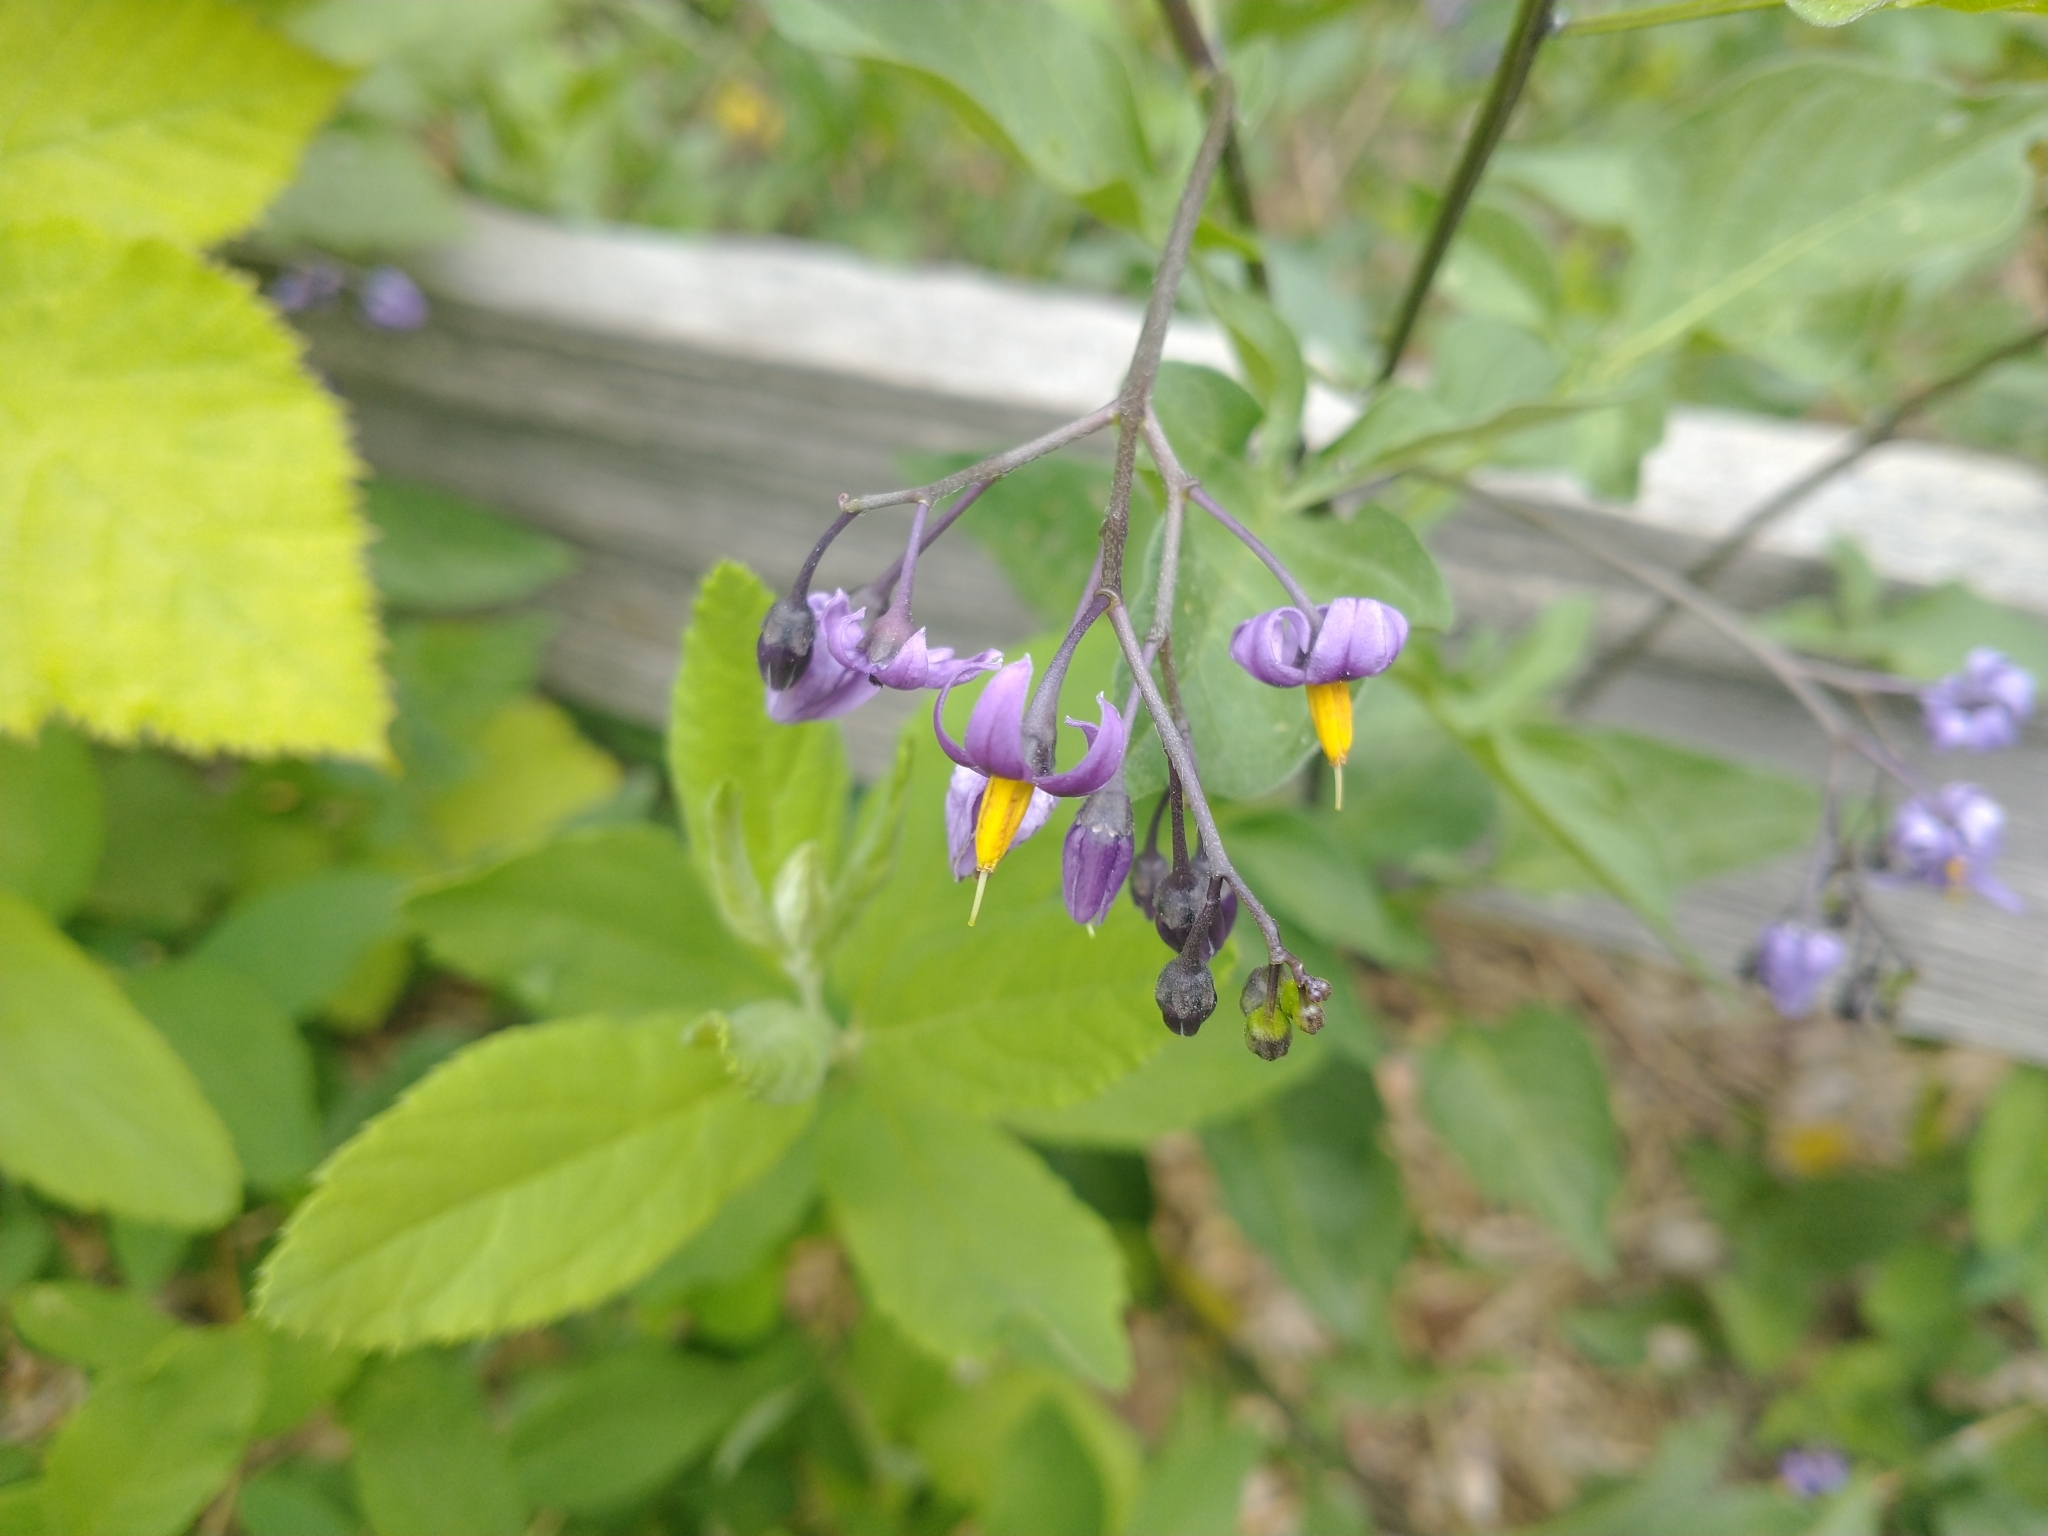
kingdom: Plantae
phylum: Tracheophyta
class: Magnoliopsida
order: Solanales
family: Solanaceae
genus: Solanum
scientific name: Solanum dulcamara
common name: Climbing nightshade
